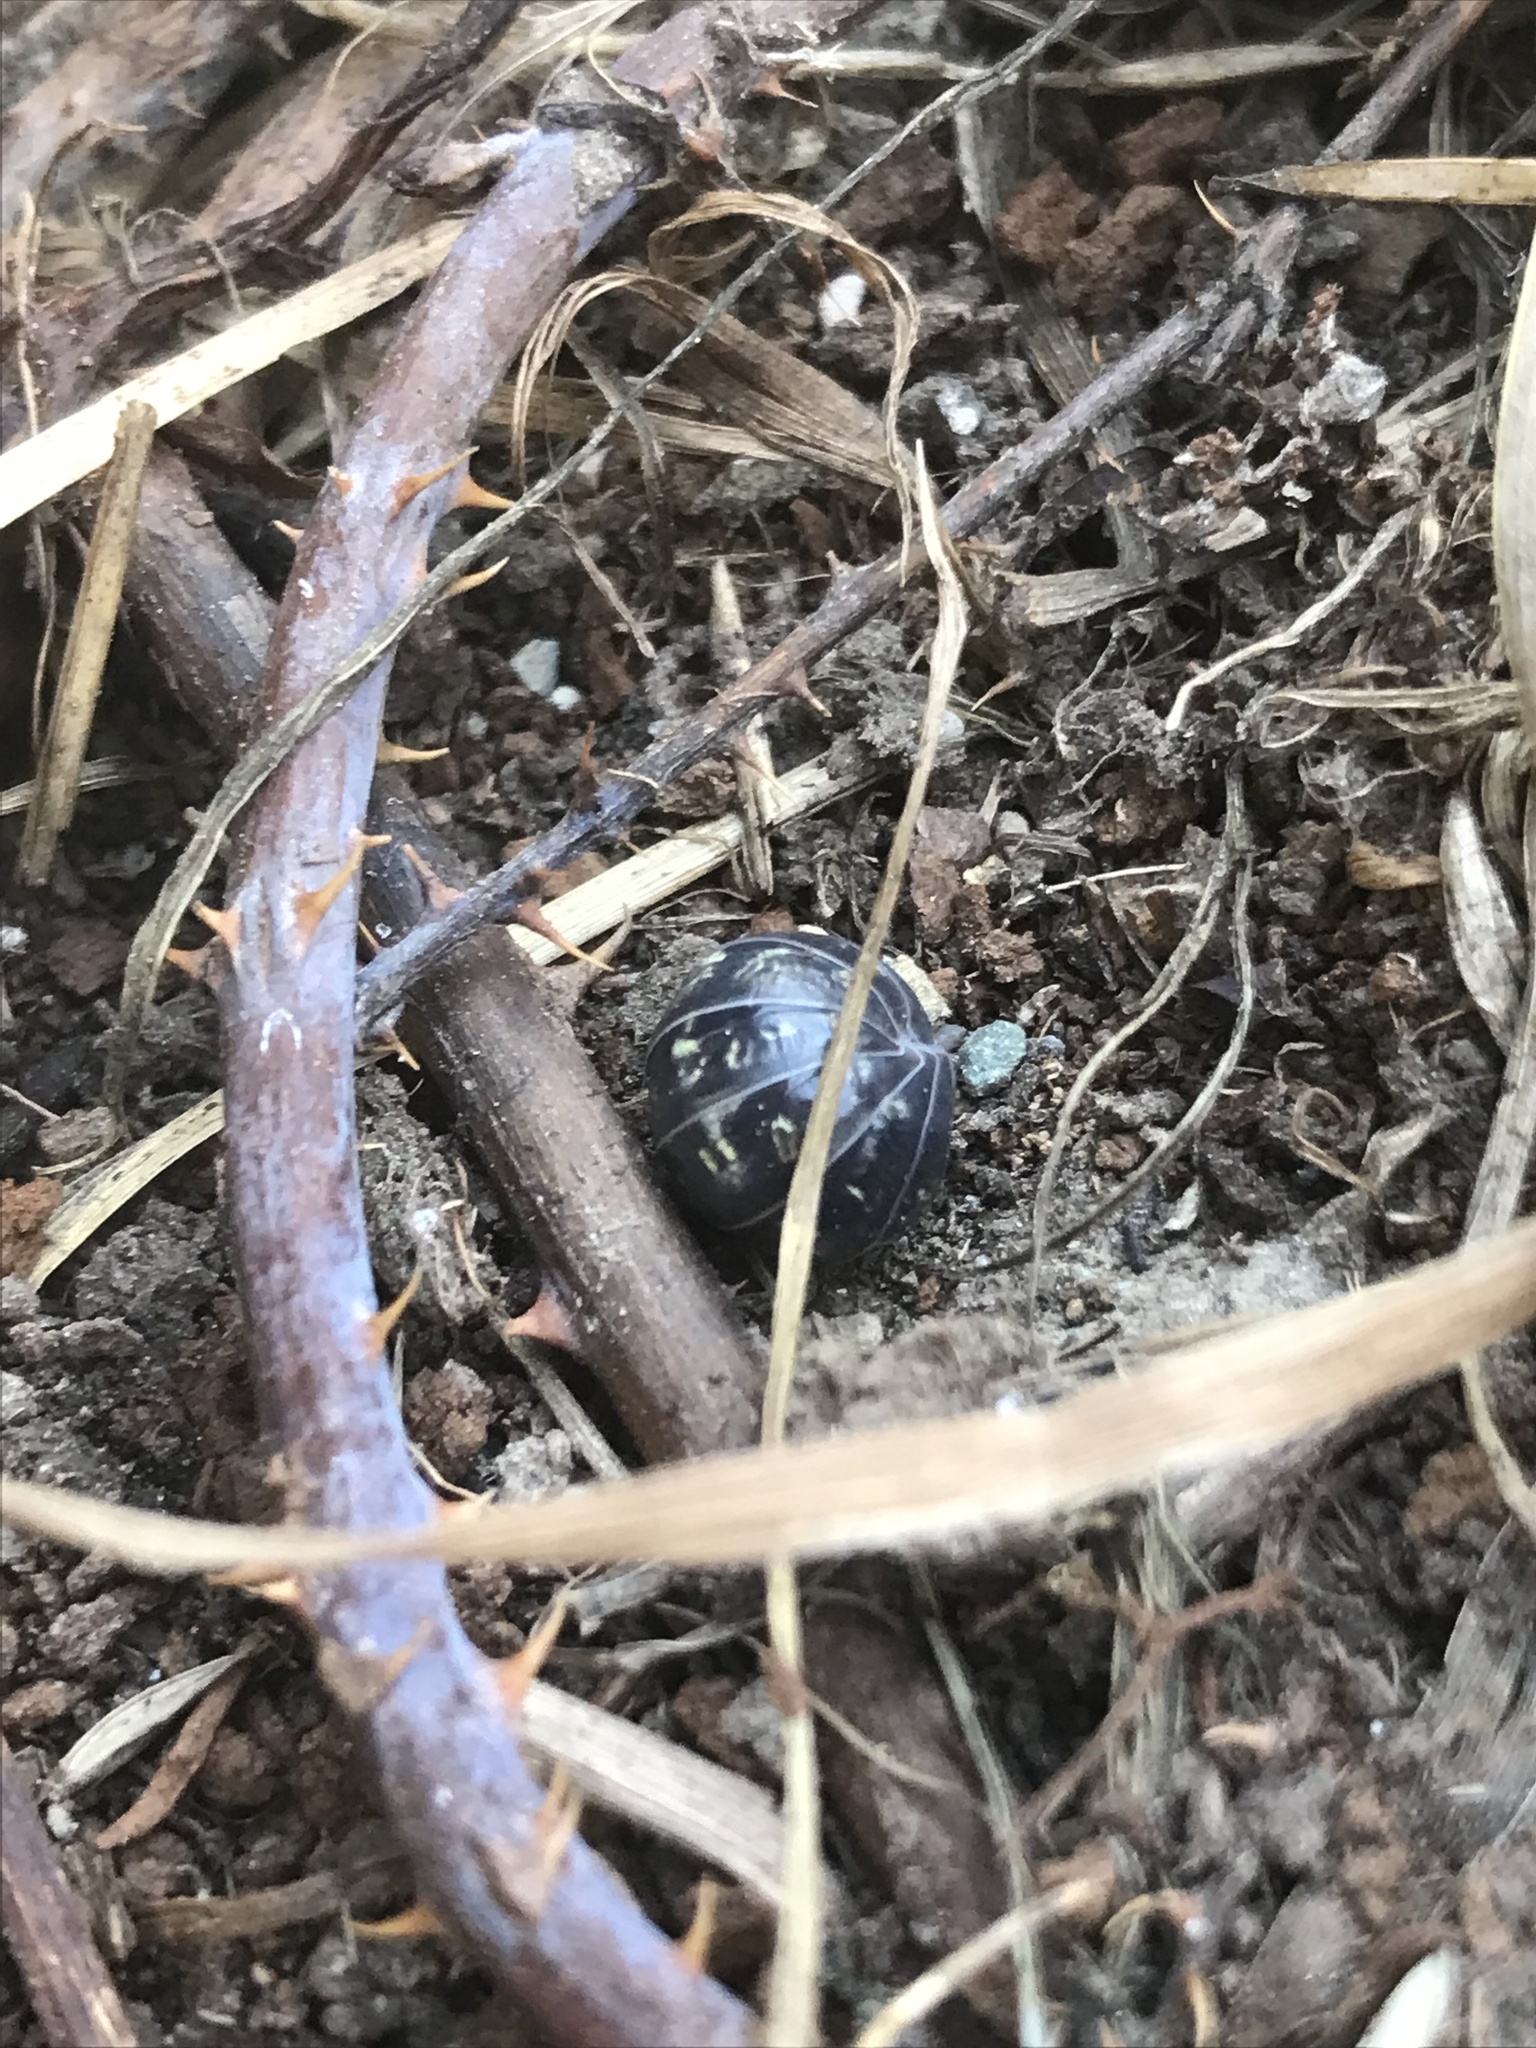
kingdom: Animalia
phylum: Arthropoda
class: Malacostraca
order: Isopoda
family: Armadillidiidae
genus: Armadillidium
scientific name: Armadillidium vulgare
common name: Common pill woodlouse
